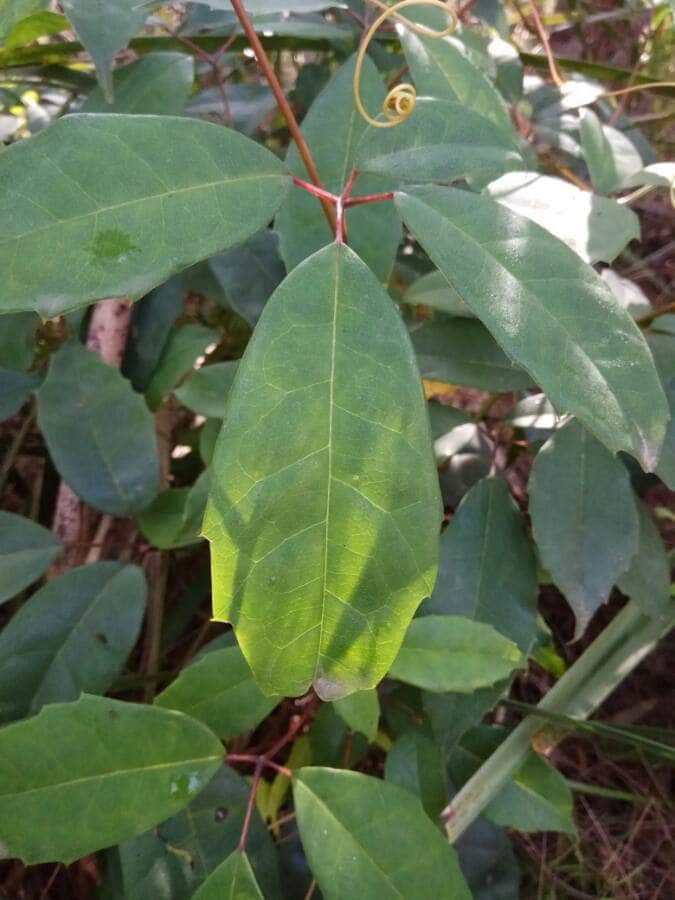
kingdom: Plantae
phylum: Tracheophyta
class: Magnoliopsida
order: Vitales
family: Vitaceae
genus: Nothocissus
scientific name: Nothocissus hypoglauca
